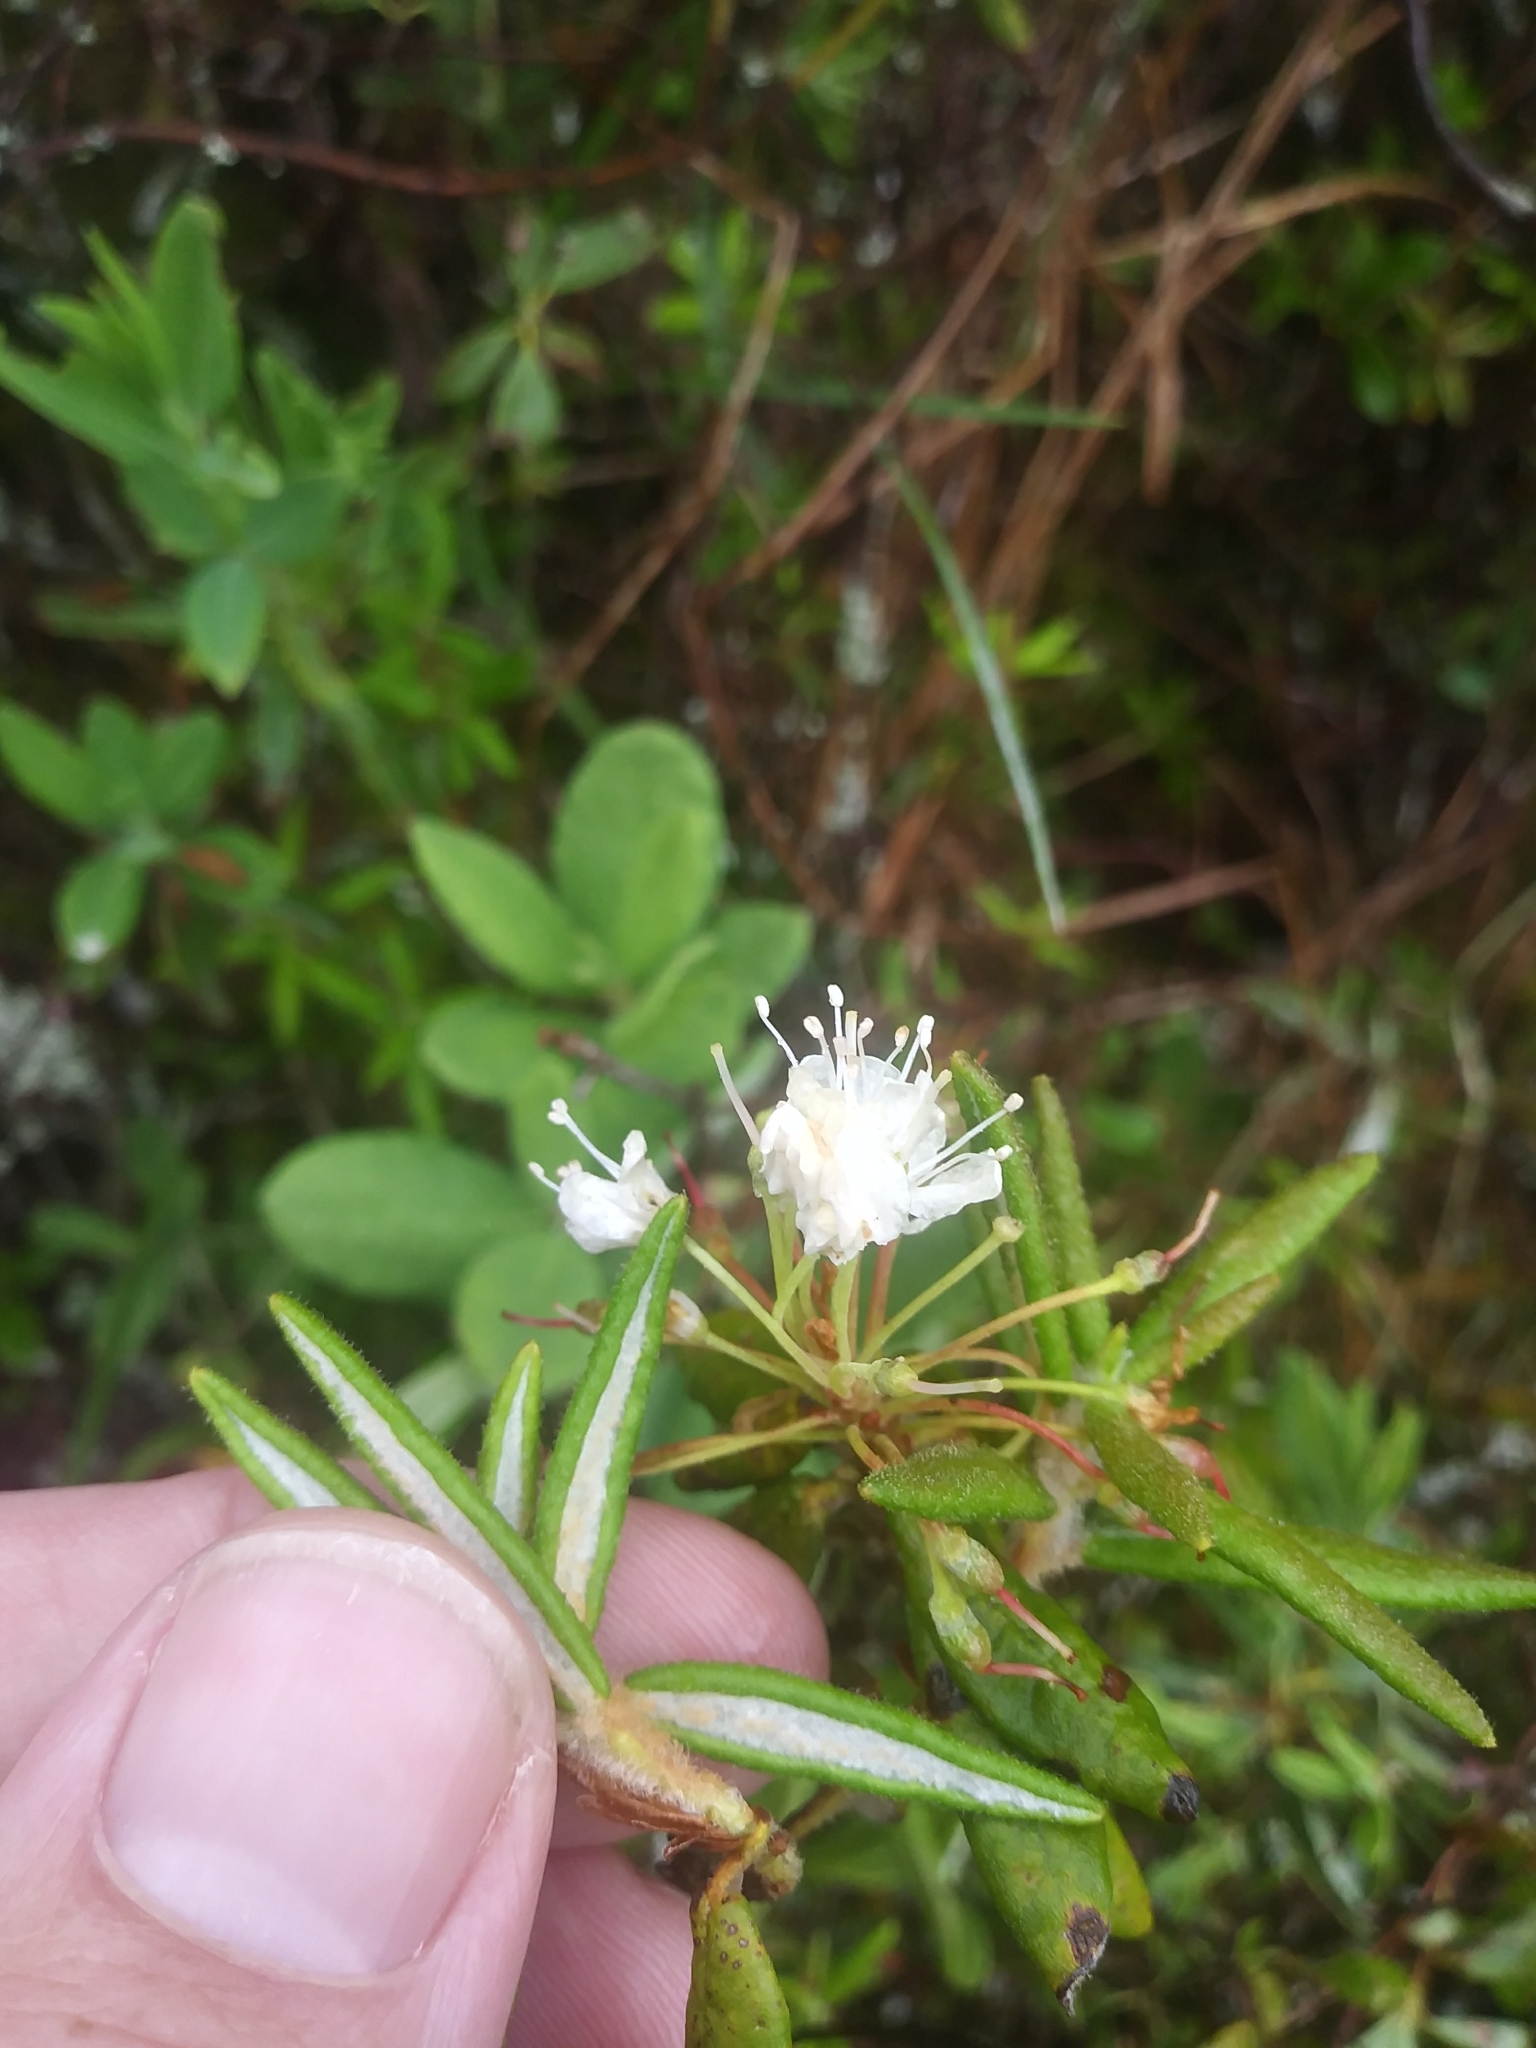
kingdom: Plantae
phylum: Tracheophyta
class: Magnoliopsida
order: Ericales
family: Ericaceae
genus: Rhododendron
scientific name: Rhododendron groenlandicum
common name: Bog labrador tea
